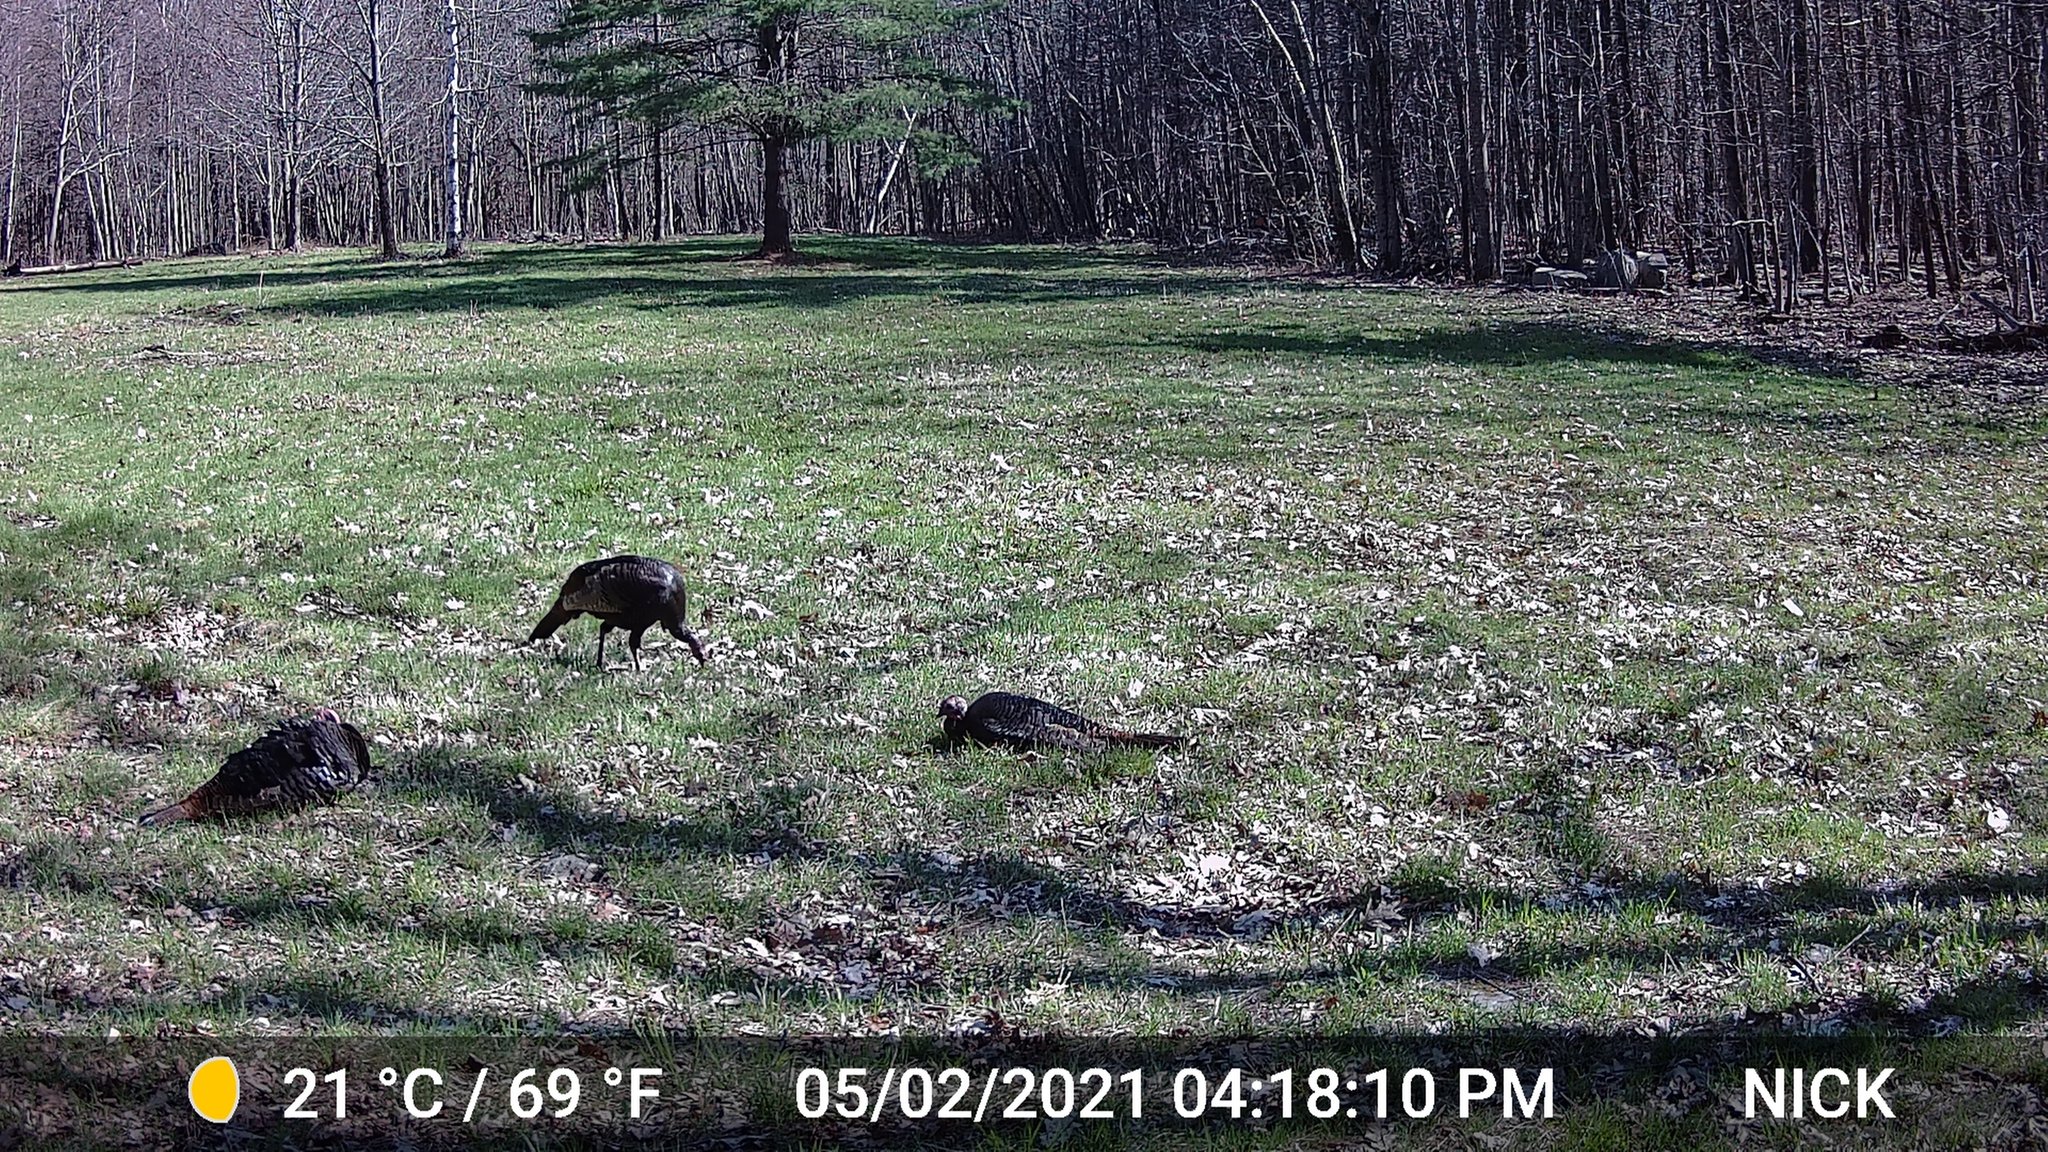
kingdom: Animalia
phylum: Chordata
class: Aves
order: Galliformes
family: Phasianidae
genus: Meleagris
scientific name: Meleagris gallopavo
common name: Wild turkey
